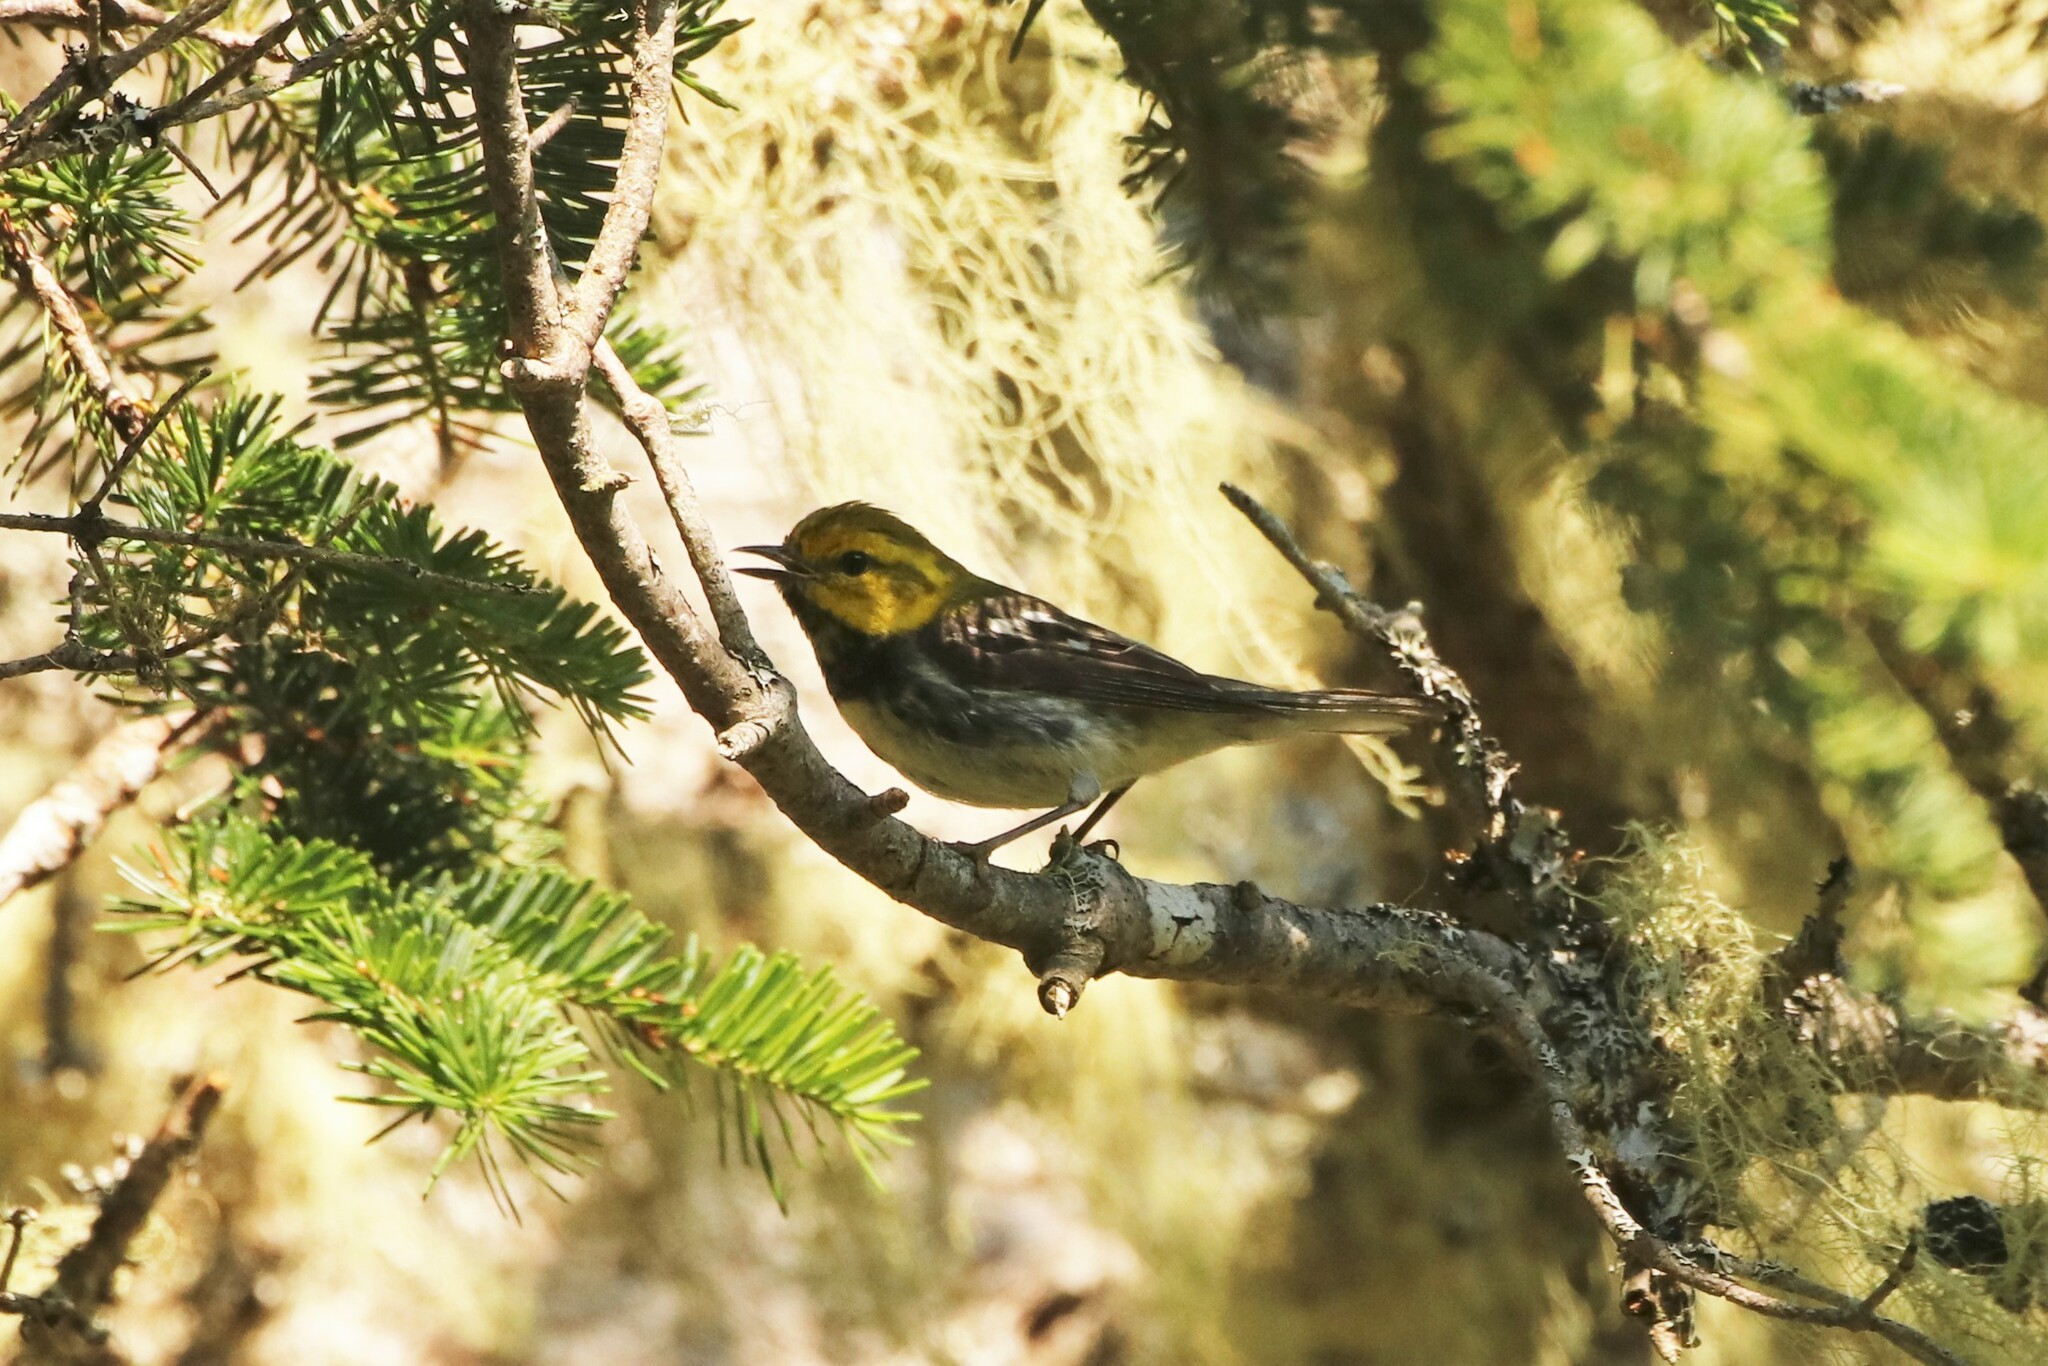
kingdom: Animalia
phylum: Chordata
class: Aves
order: Passeriformes
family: Parulidae
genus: Setophaga
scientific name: Setophaga virens
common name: Black-throated green warbler
